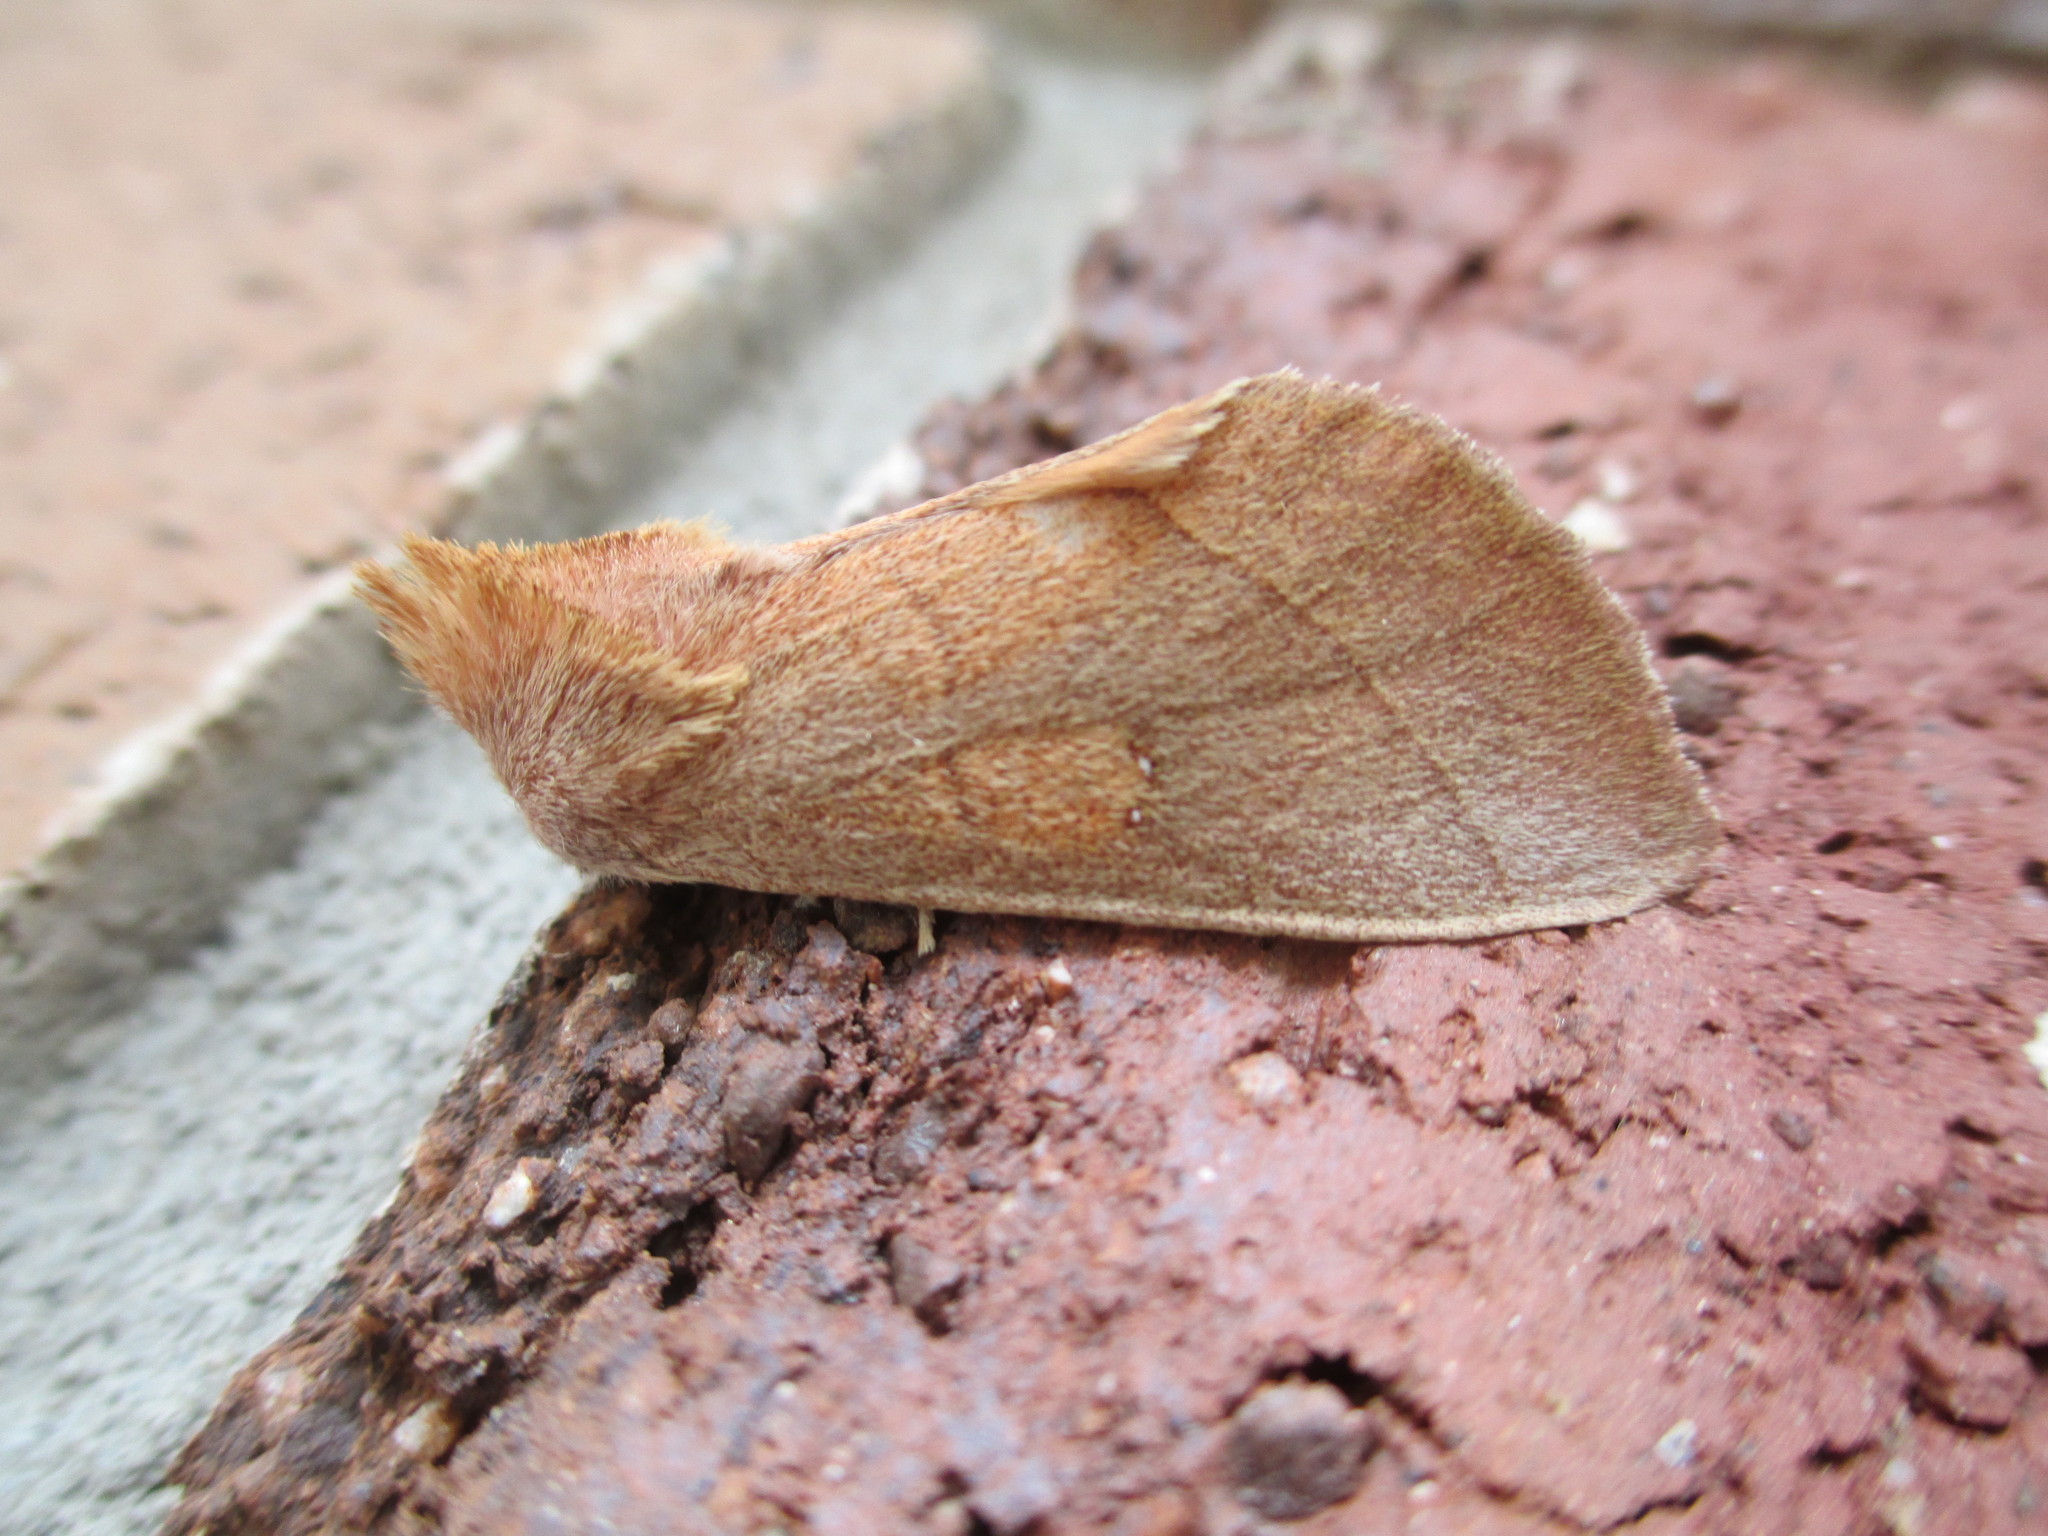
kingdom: Animalia
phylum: Arthropoda
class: Insecta
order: Lepidoptera
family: Notodontidae
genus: Nadata
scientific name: Nadata gibbosa
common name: White-dotted prominent
